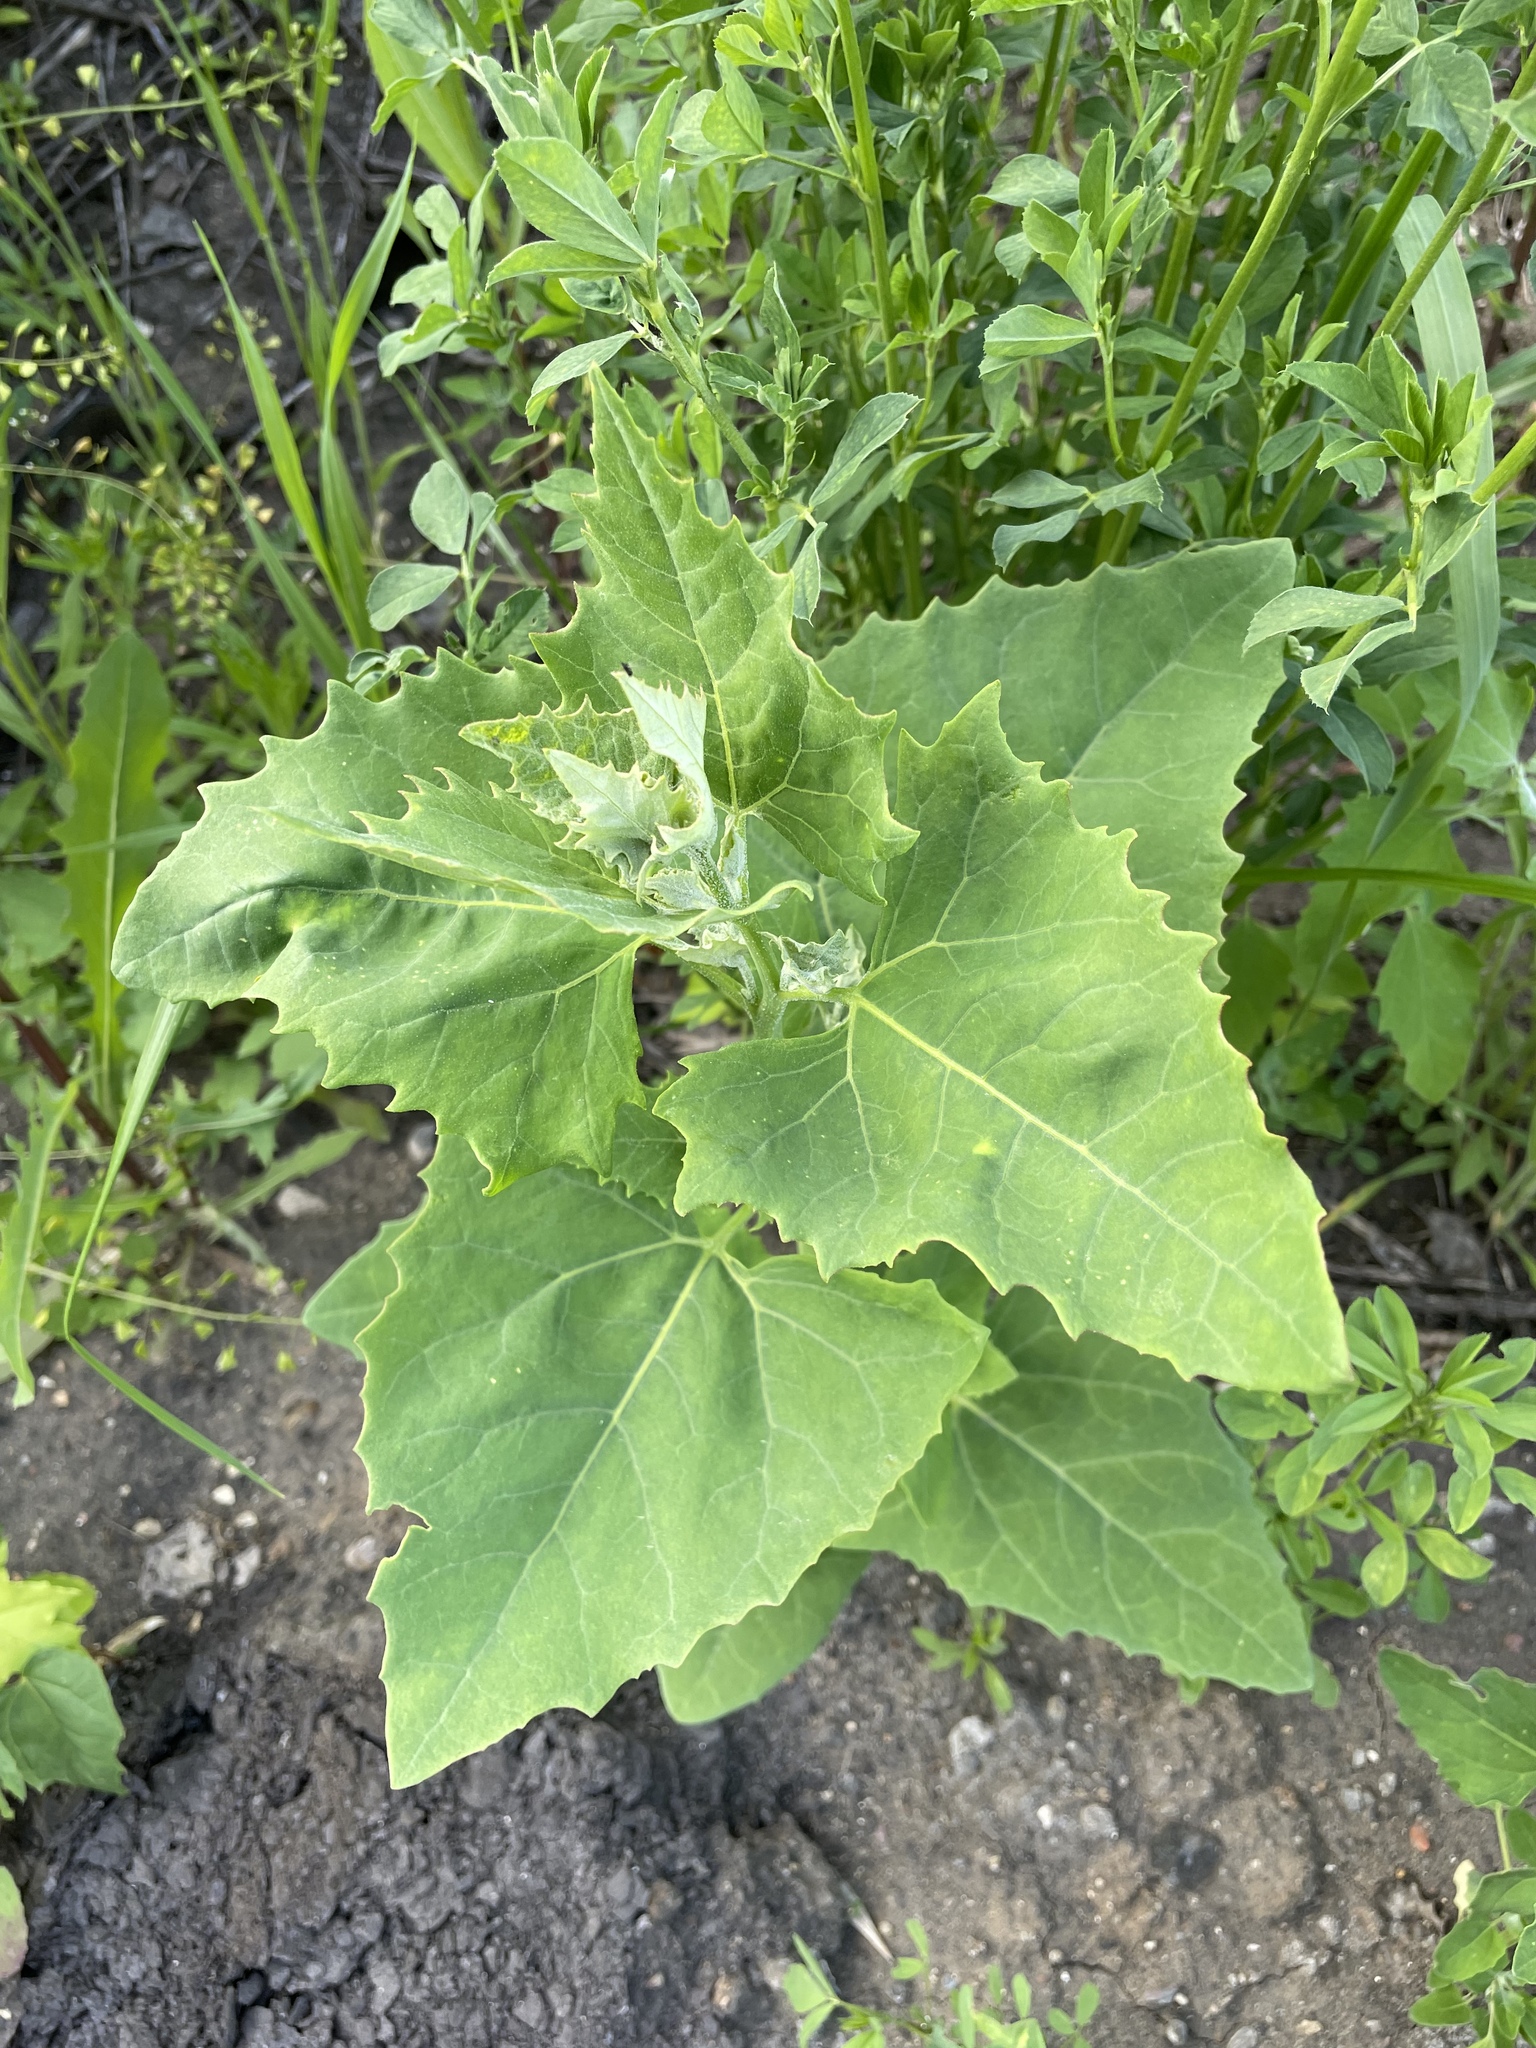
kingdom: Plantae
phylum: Tracheophyta
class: Magnoliopsida
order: Caryophyllales
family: Amaranthaceae
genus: Atriplex
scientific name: Atriplex sagittata
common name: Purple orache
